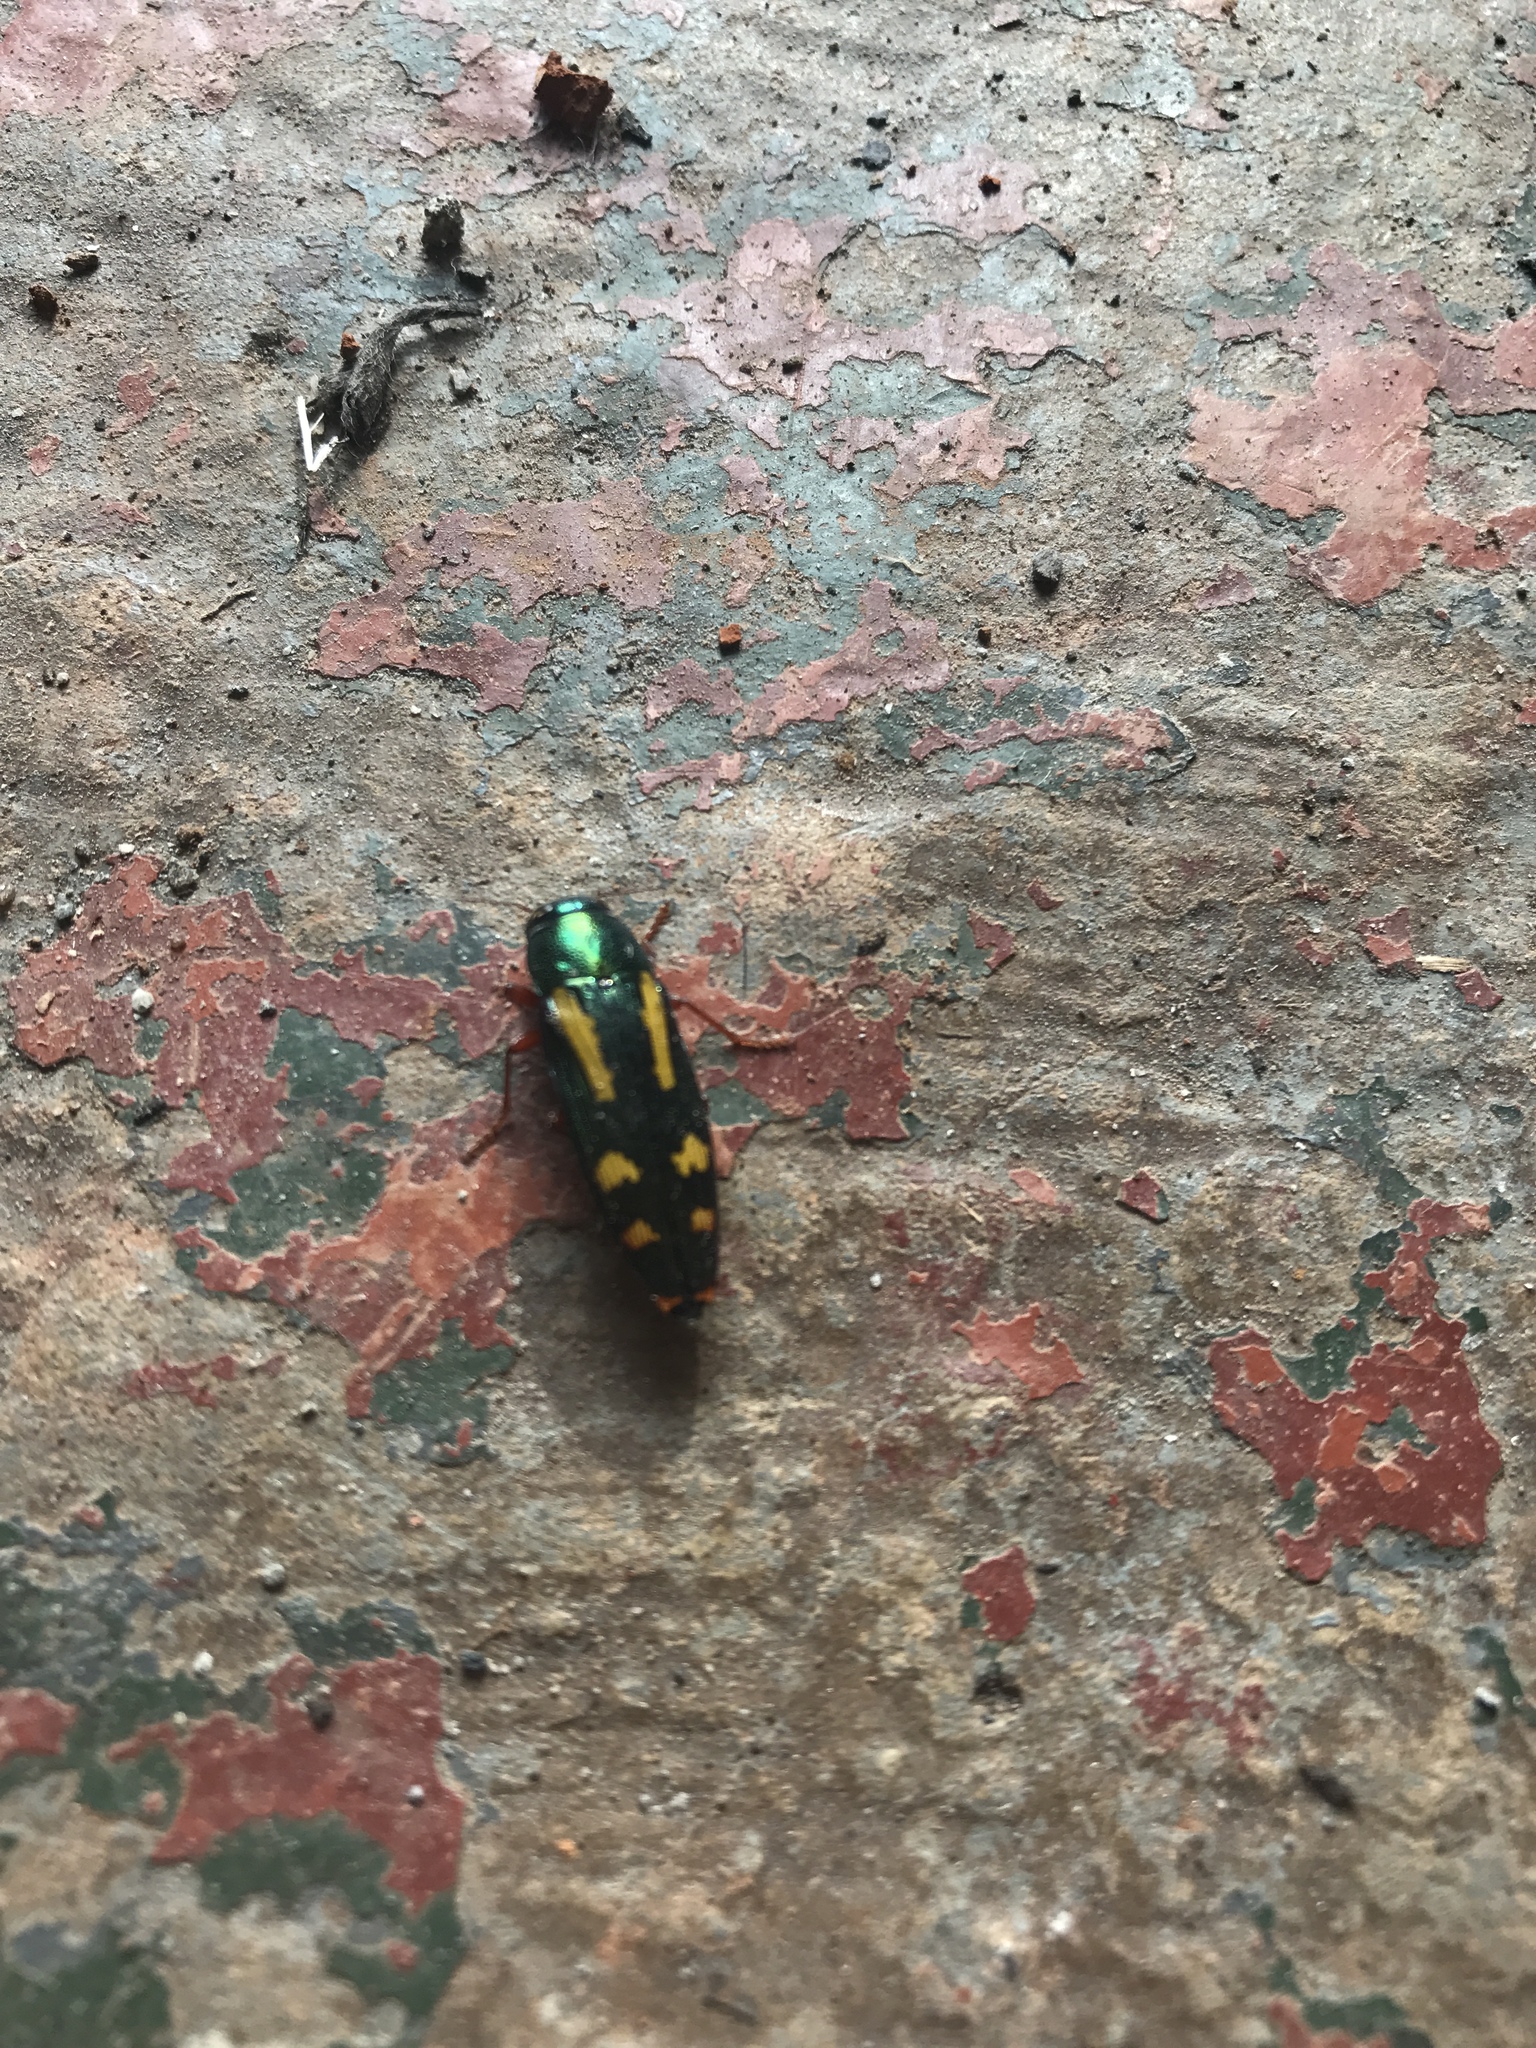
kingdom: Animalia
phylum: Arthropoda
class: Insecta
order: Coleoptera
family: Buprestidae
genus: Buprestis
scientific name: Buprestis rufipes
